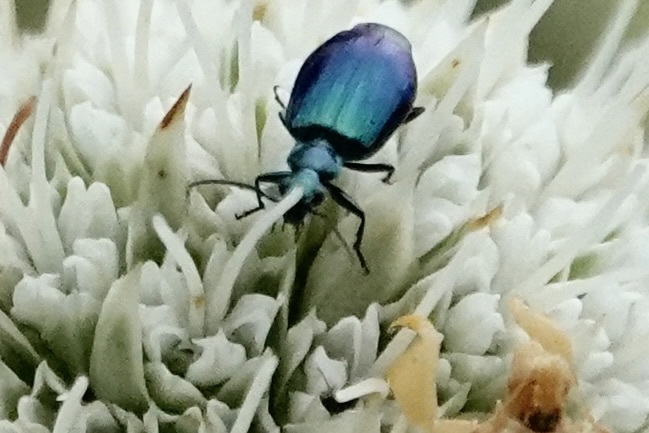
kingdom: Animalia
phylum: Arthropoda
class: Insecta
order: Coleoptera
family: Carabidae
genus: Lebia
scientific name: Lebia viridis
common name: Flower lebia beetle
